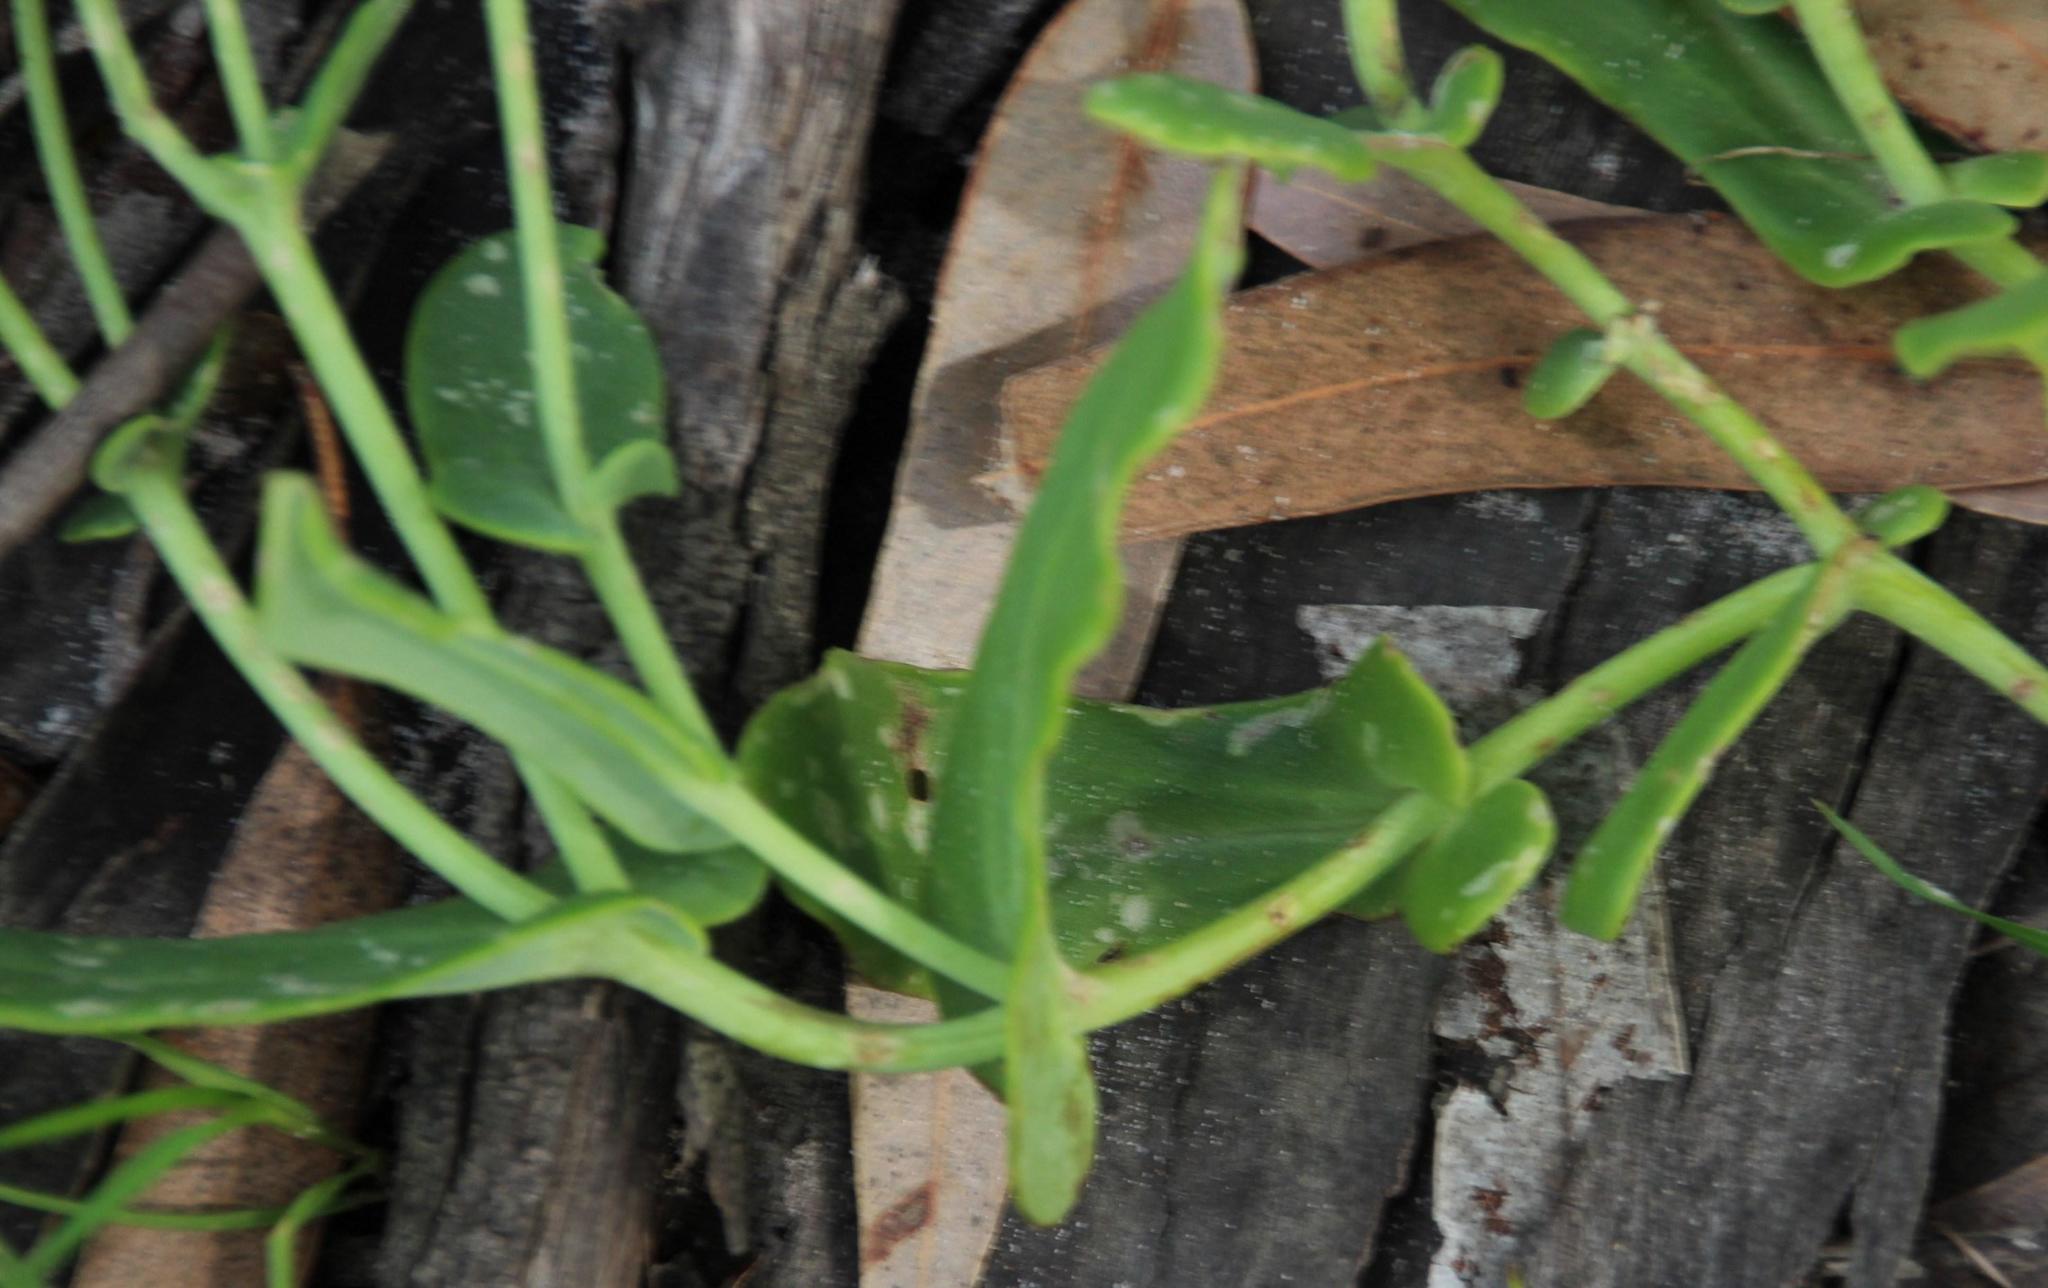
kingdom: Plantae
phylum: Tracheophyta
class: Magnoliopsida
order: Asterales
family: Asteraceae
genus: Othonna
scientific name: Othonna undulosa
